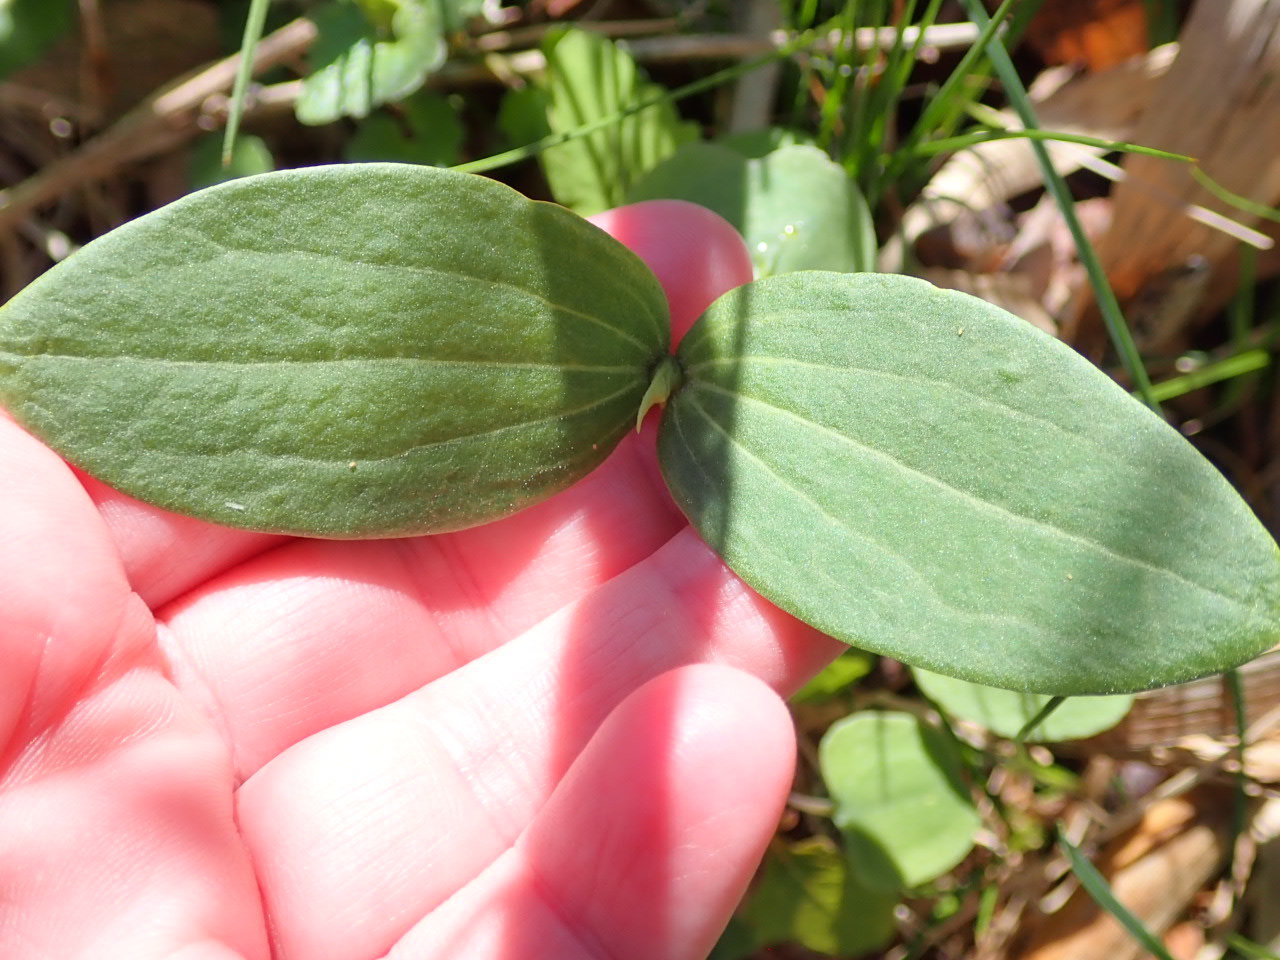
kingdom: Plantae
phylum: Tracheophyta
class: Magnoliopsida
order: Cucurbitales
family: Cucurbitaceae
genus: Echinocystis
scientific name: Echinocystis lobata
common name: Wild cucumber
